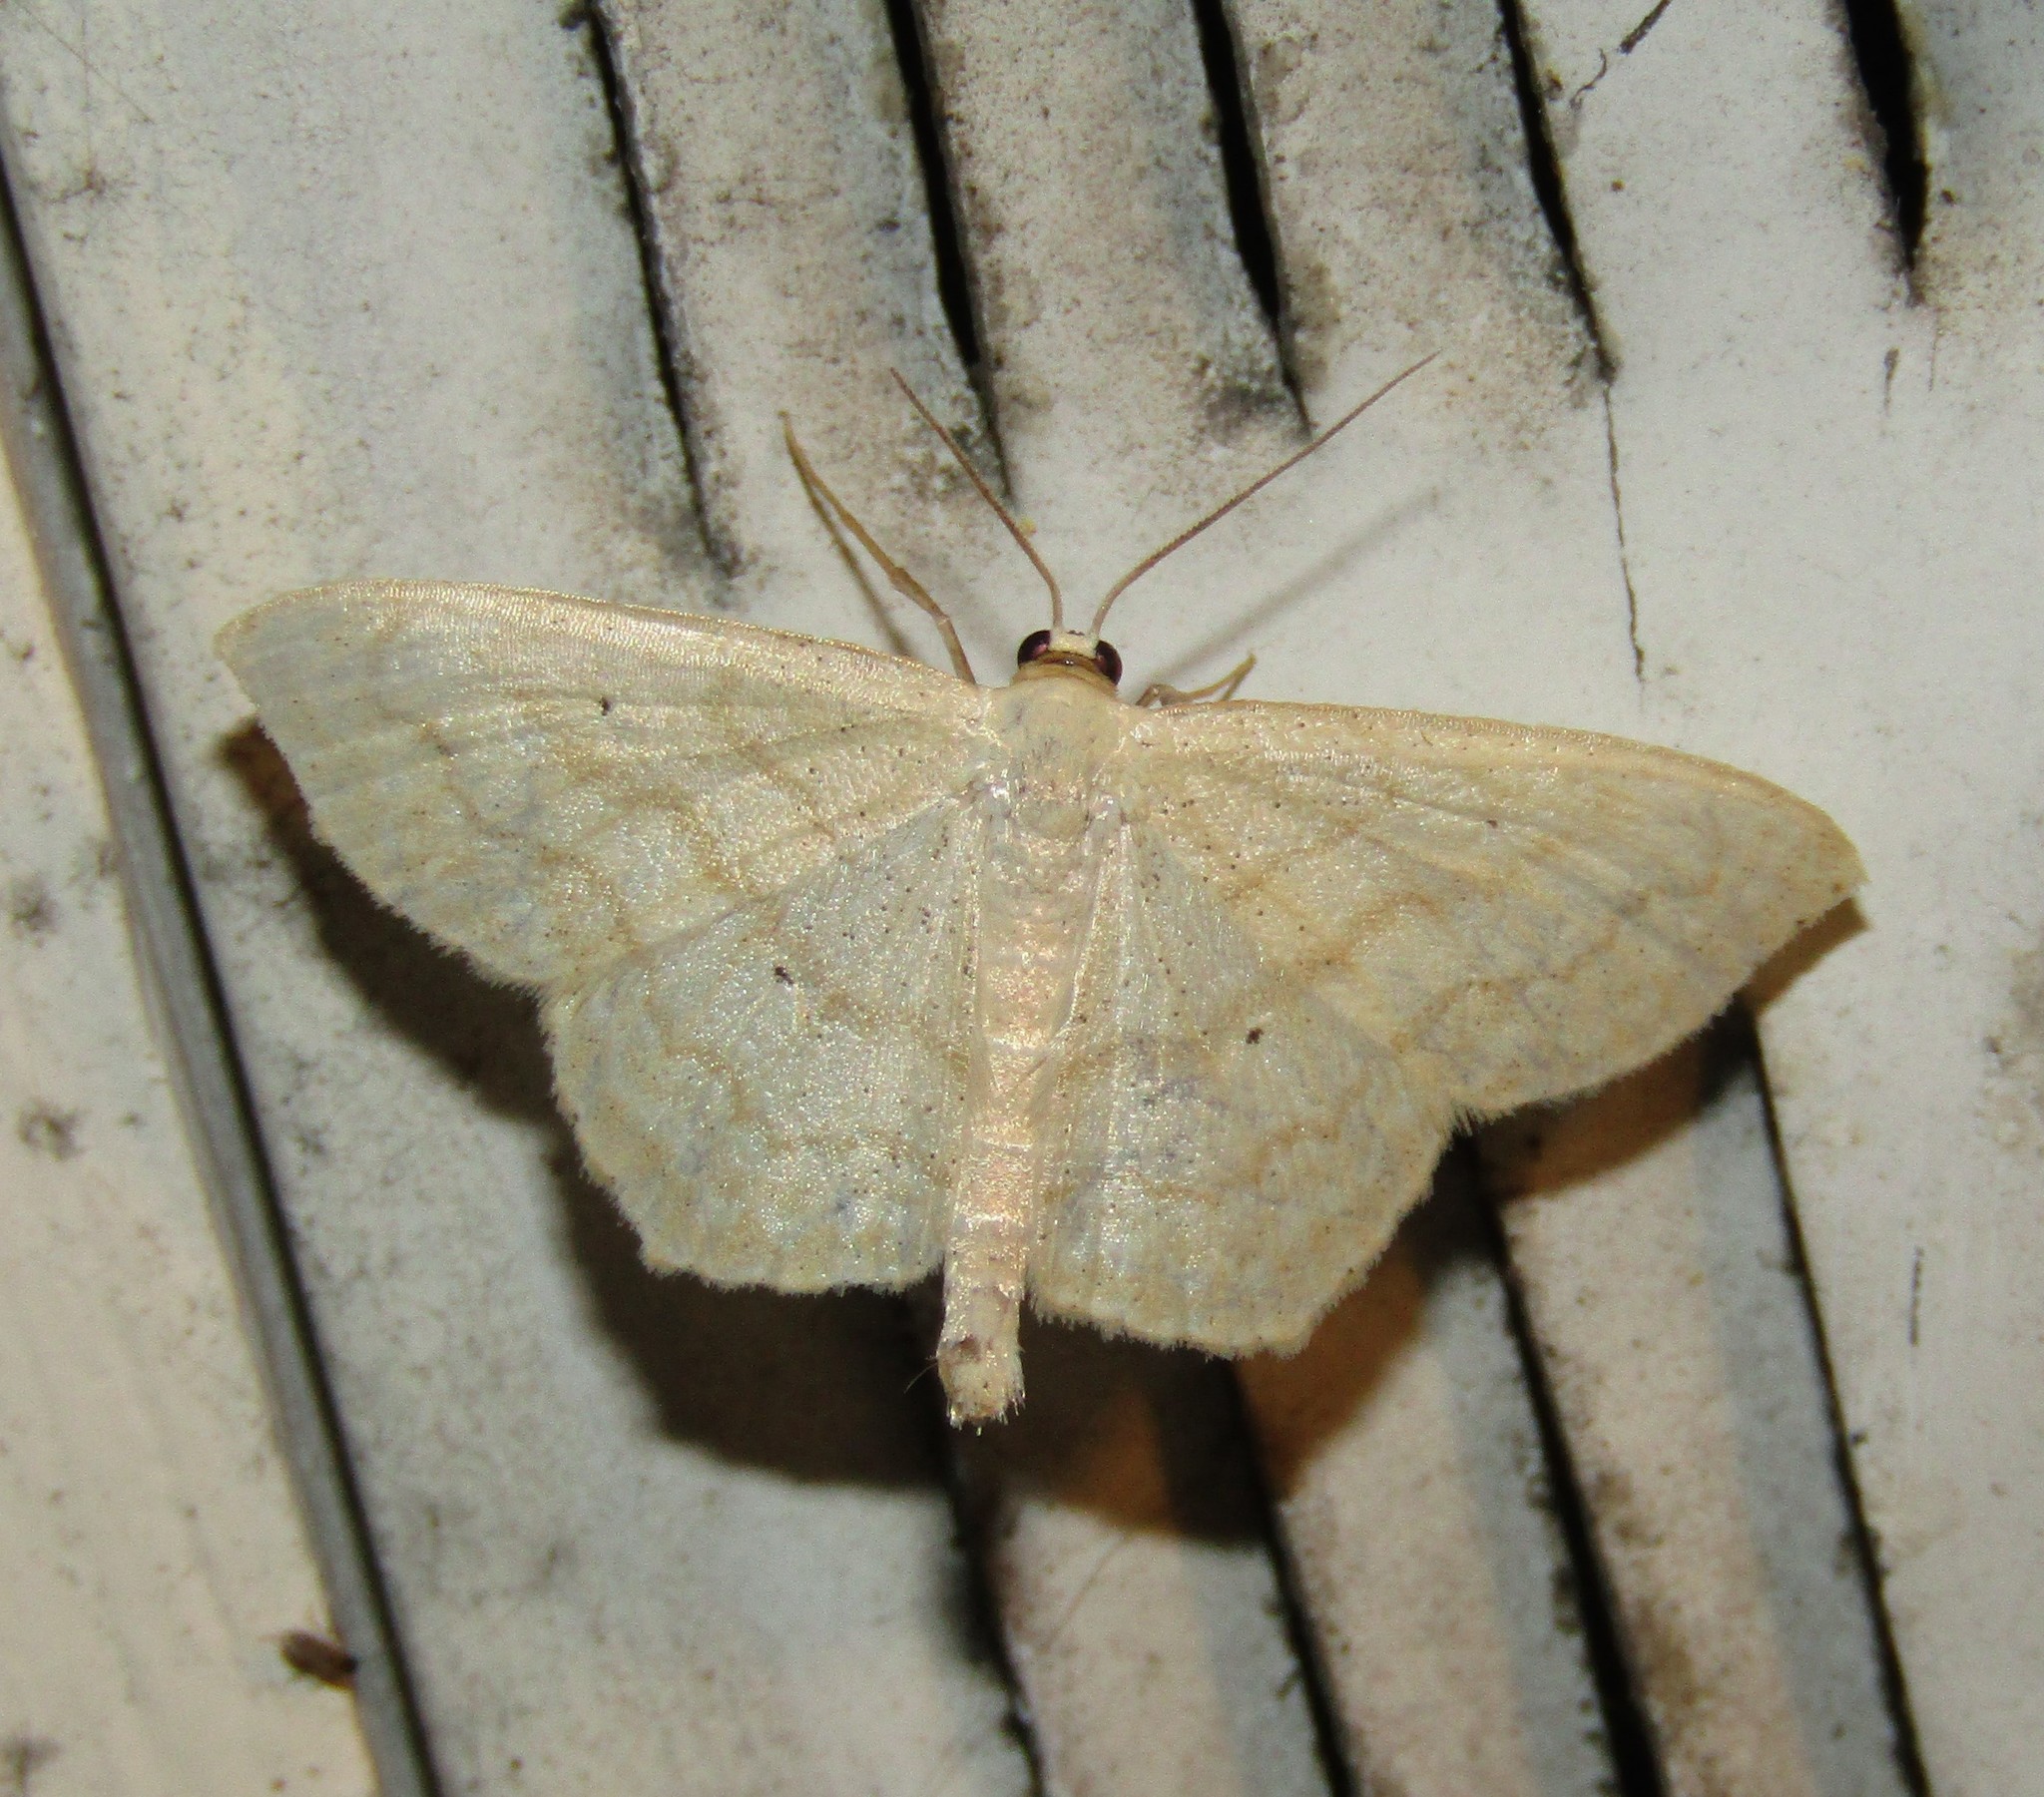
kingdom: Animalia
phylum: Arthropoda
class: Insecta
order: Lepidoptera
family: Geometridae
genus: Scopula
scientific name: Scopula limboundata
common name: Large lace border
